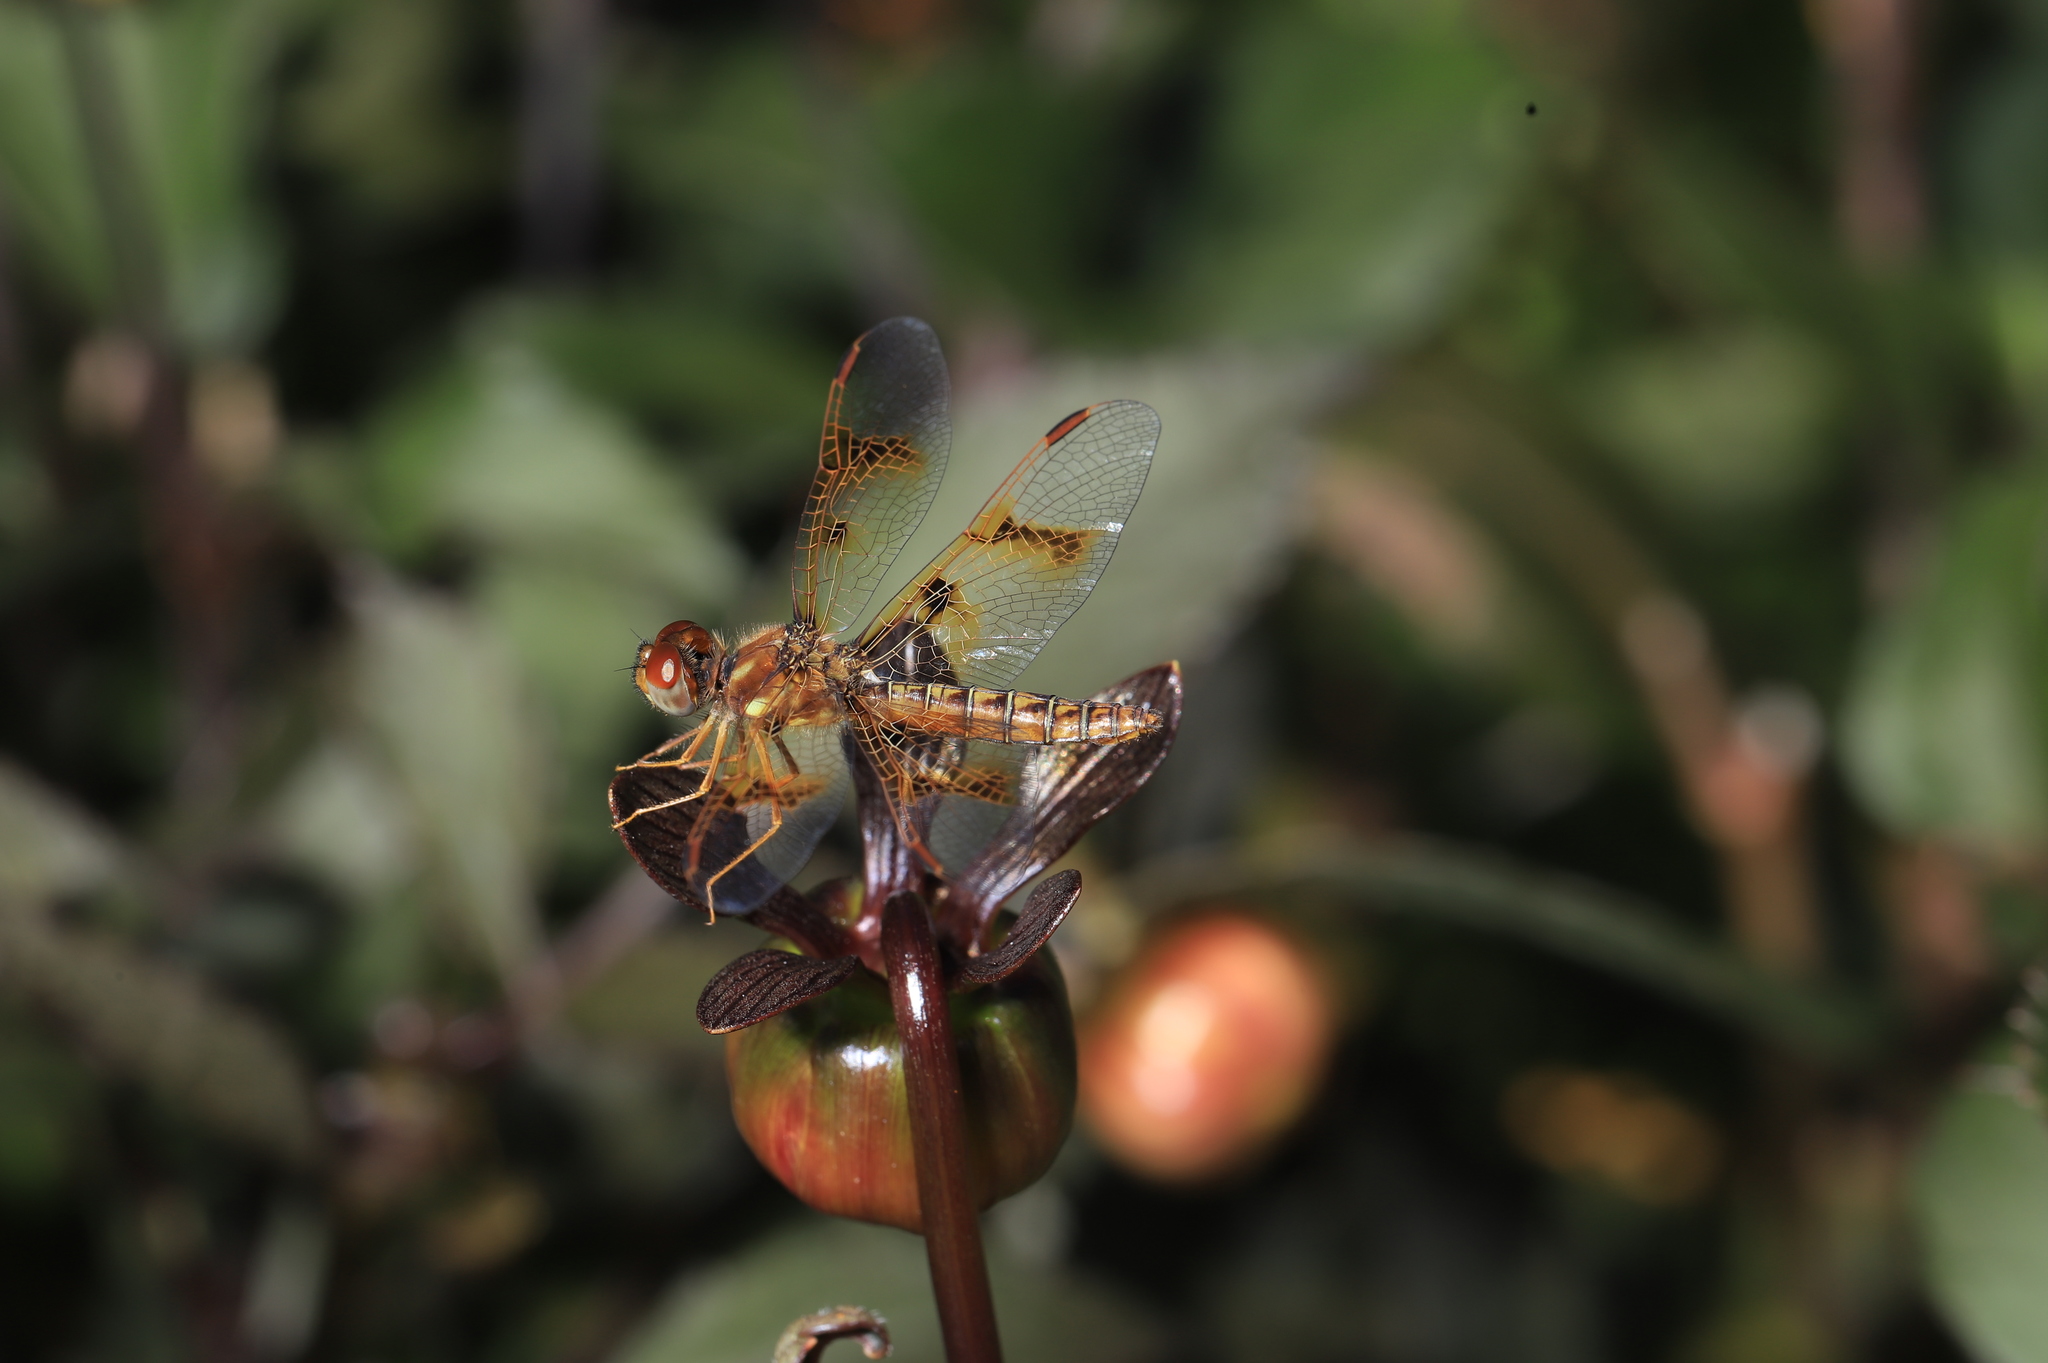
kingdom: Animalia
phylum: Arthropoda
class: Insecta
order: Odonata
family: Libellulidae
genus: Perithemis
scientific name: Perithemis tenera
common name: Eastern amberwing
